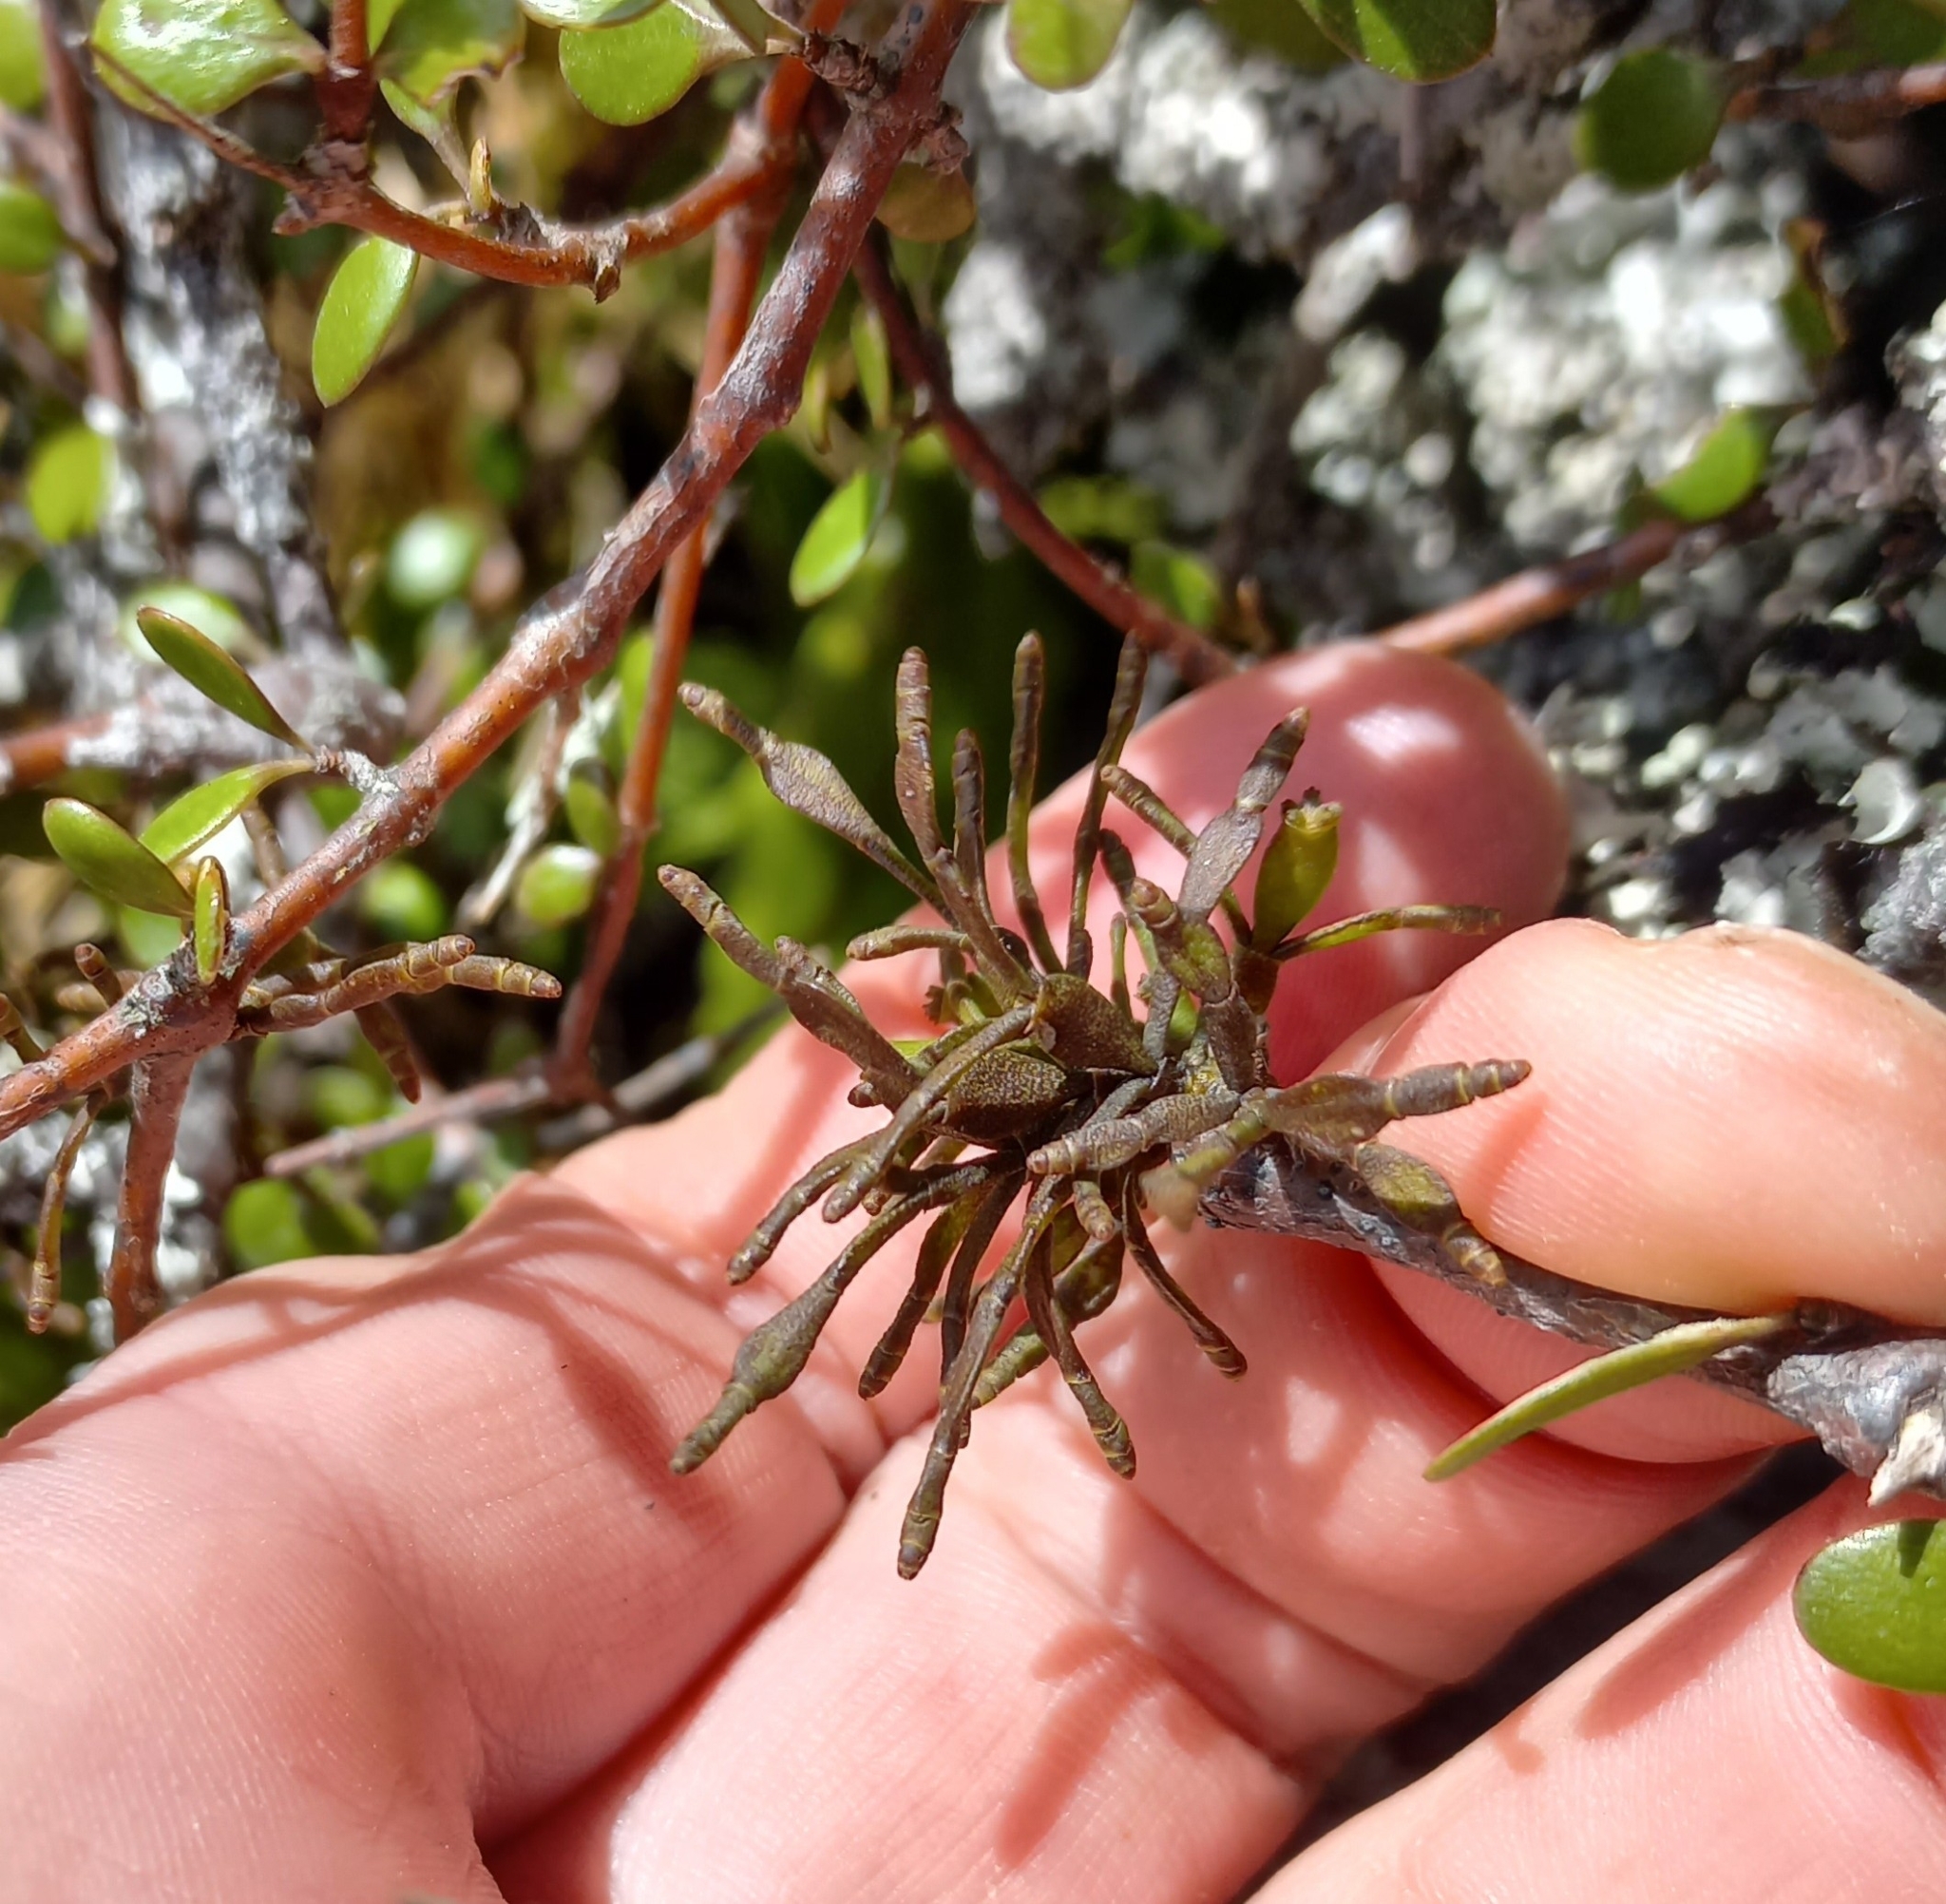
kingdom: Plantae
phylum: Tracheophyta
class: Magnoliopsida
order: Santalales
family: Viscaceae
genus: Korthalsella
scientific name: Korthalsella clavata
